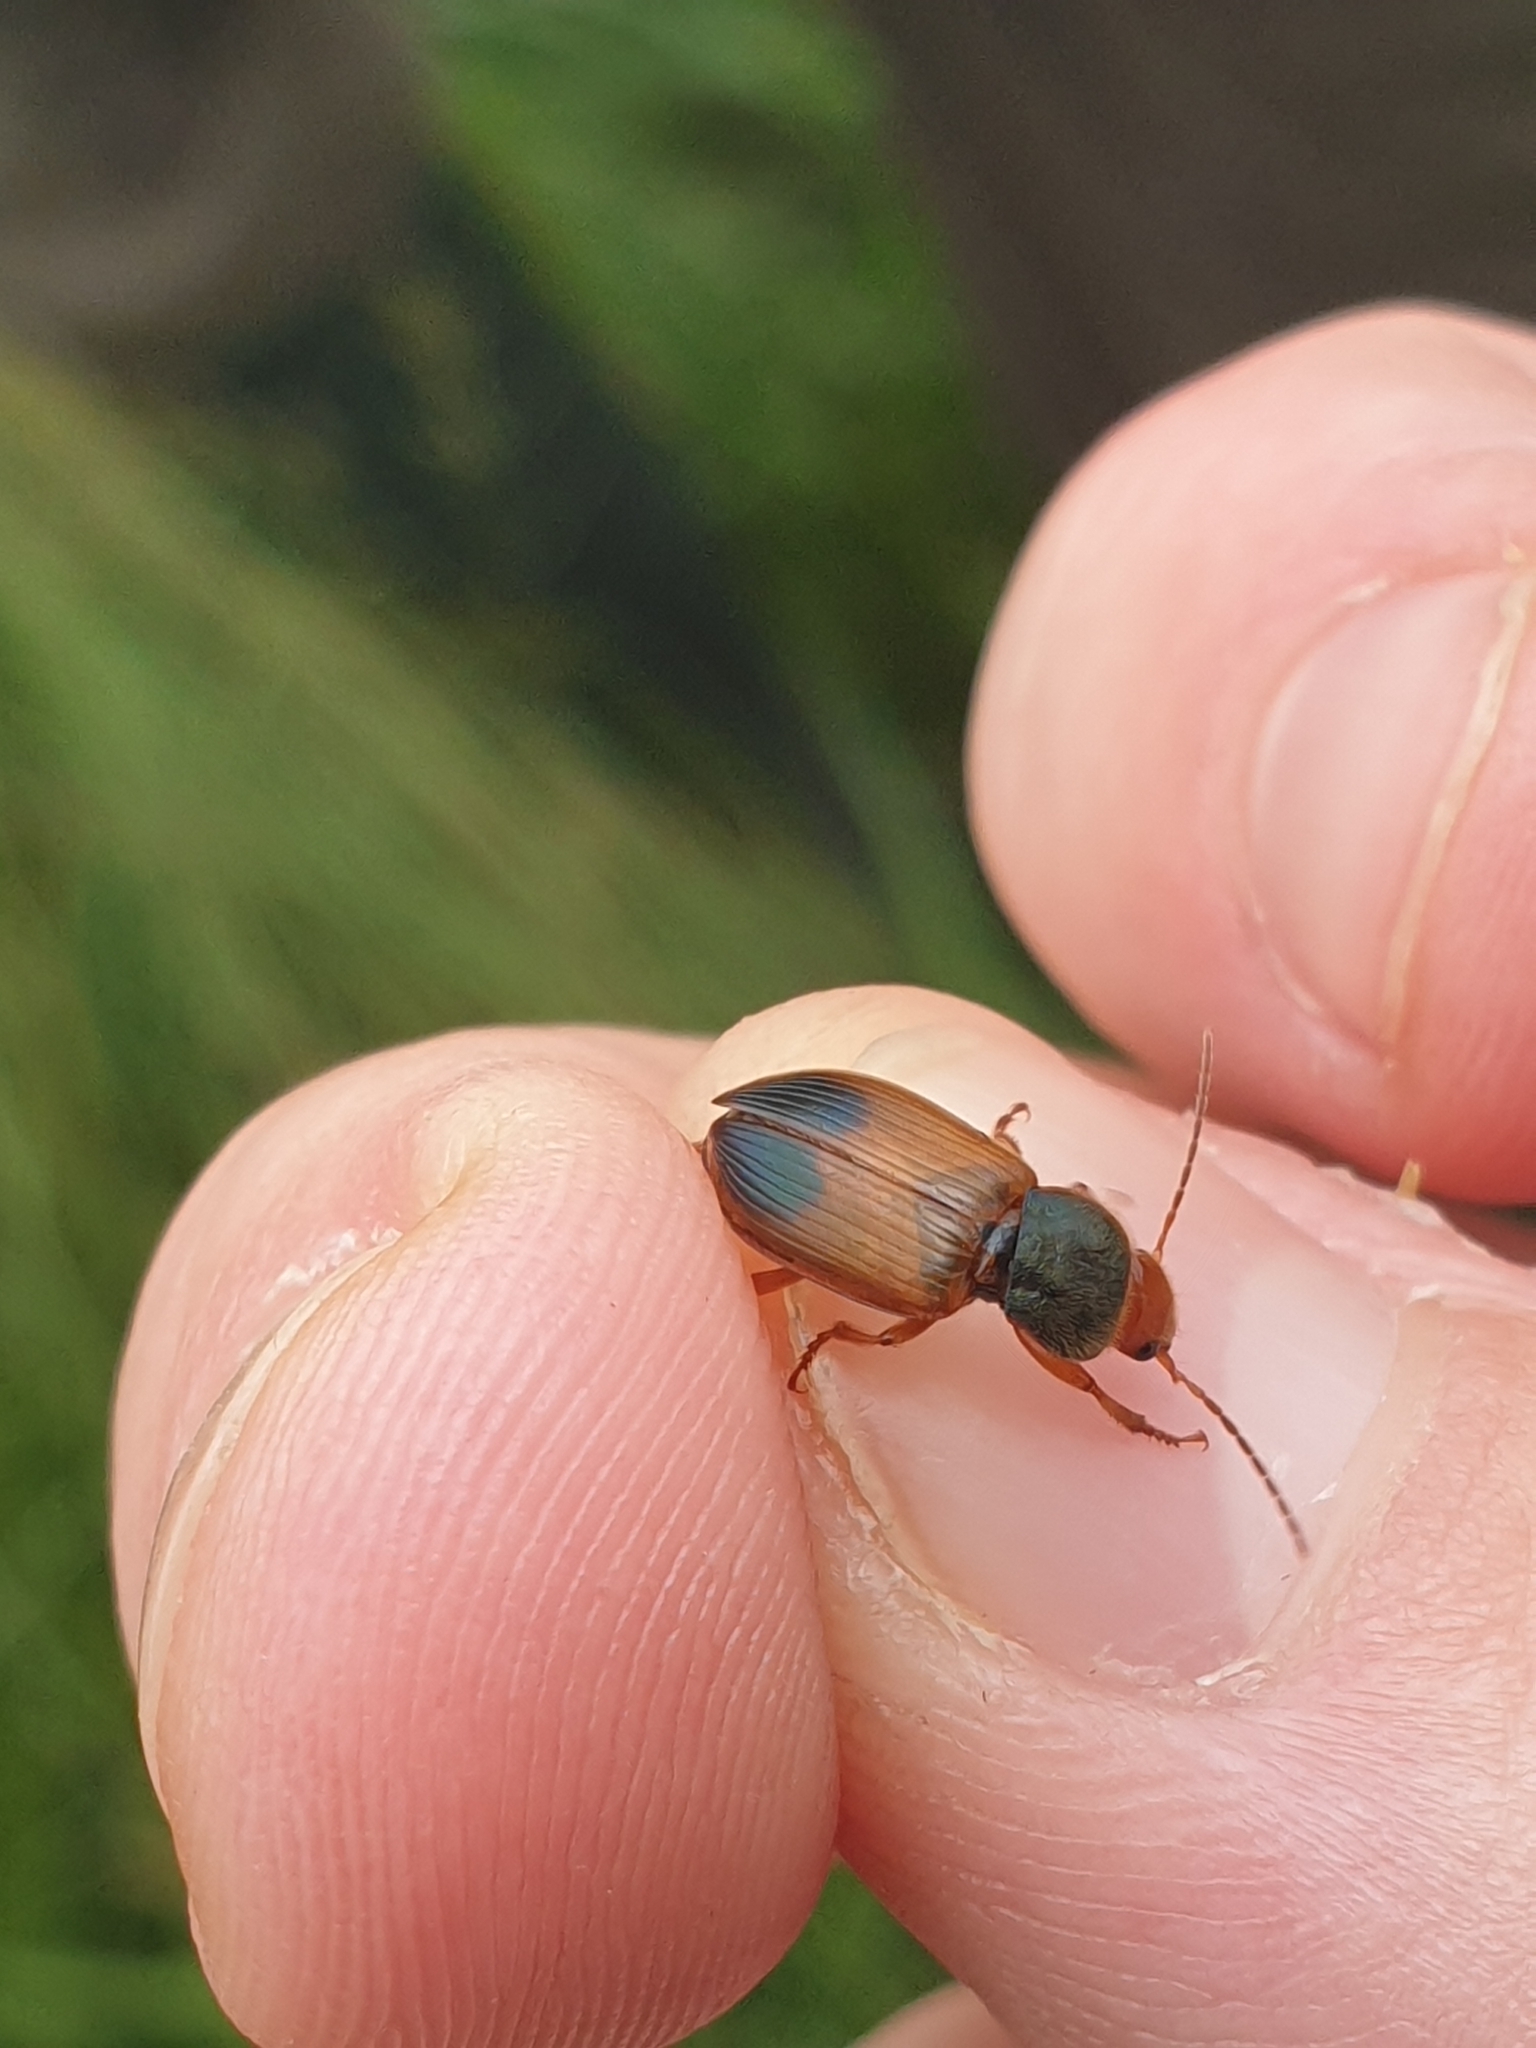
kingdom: Animalia
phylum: Arthropoda
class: Insecta
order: Coleoptera
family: Carabidae
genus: Diachromus
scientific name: Diachromus germanus
